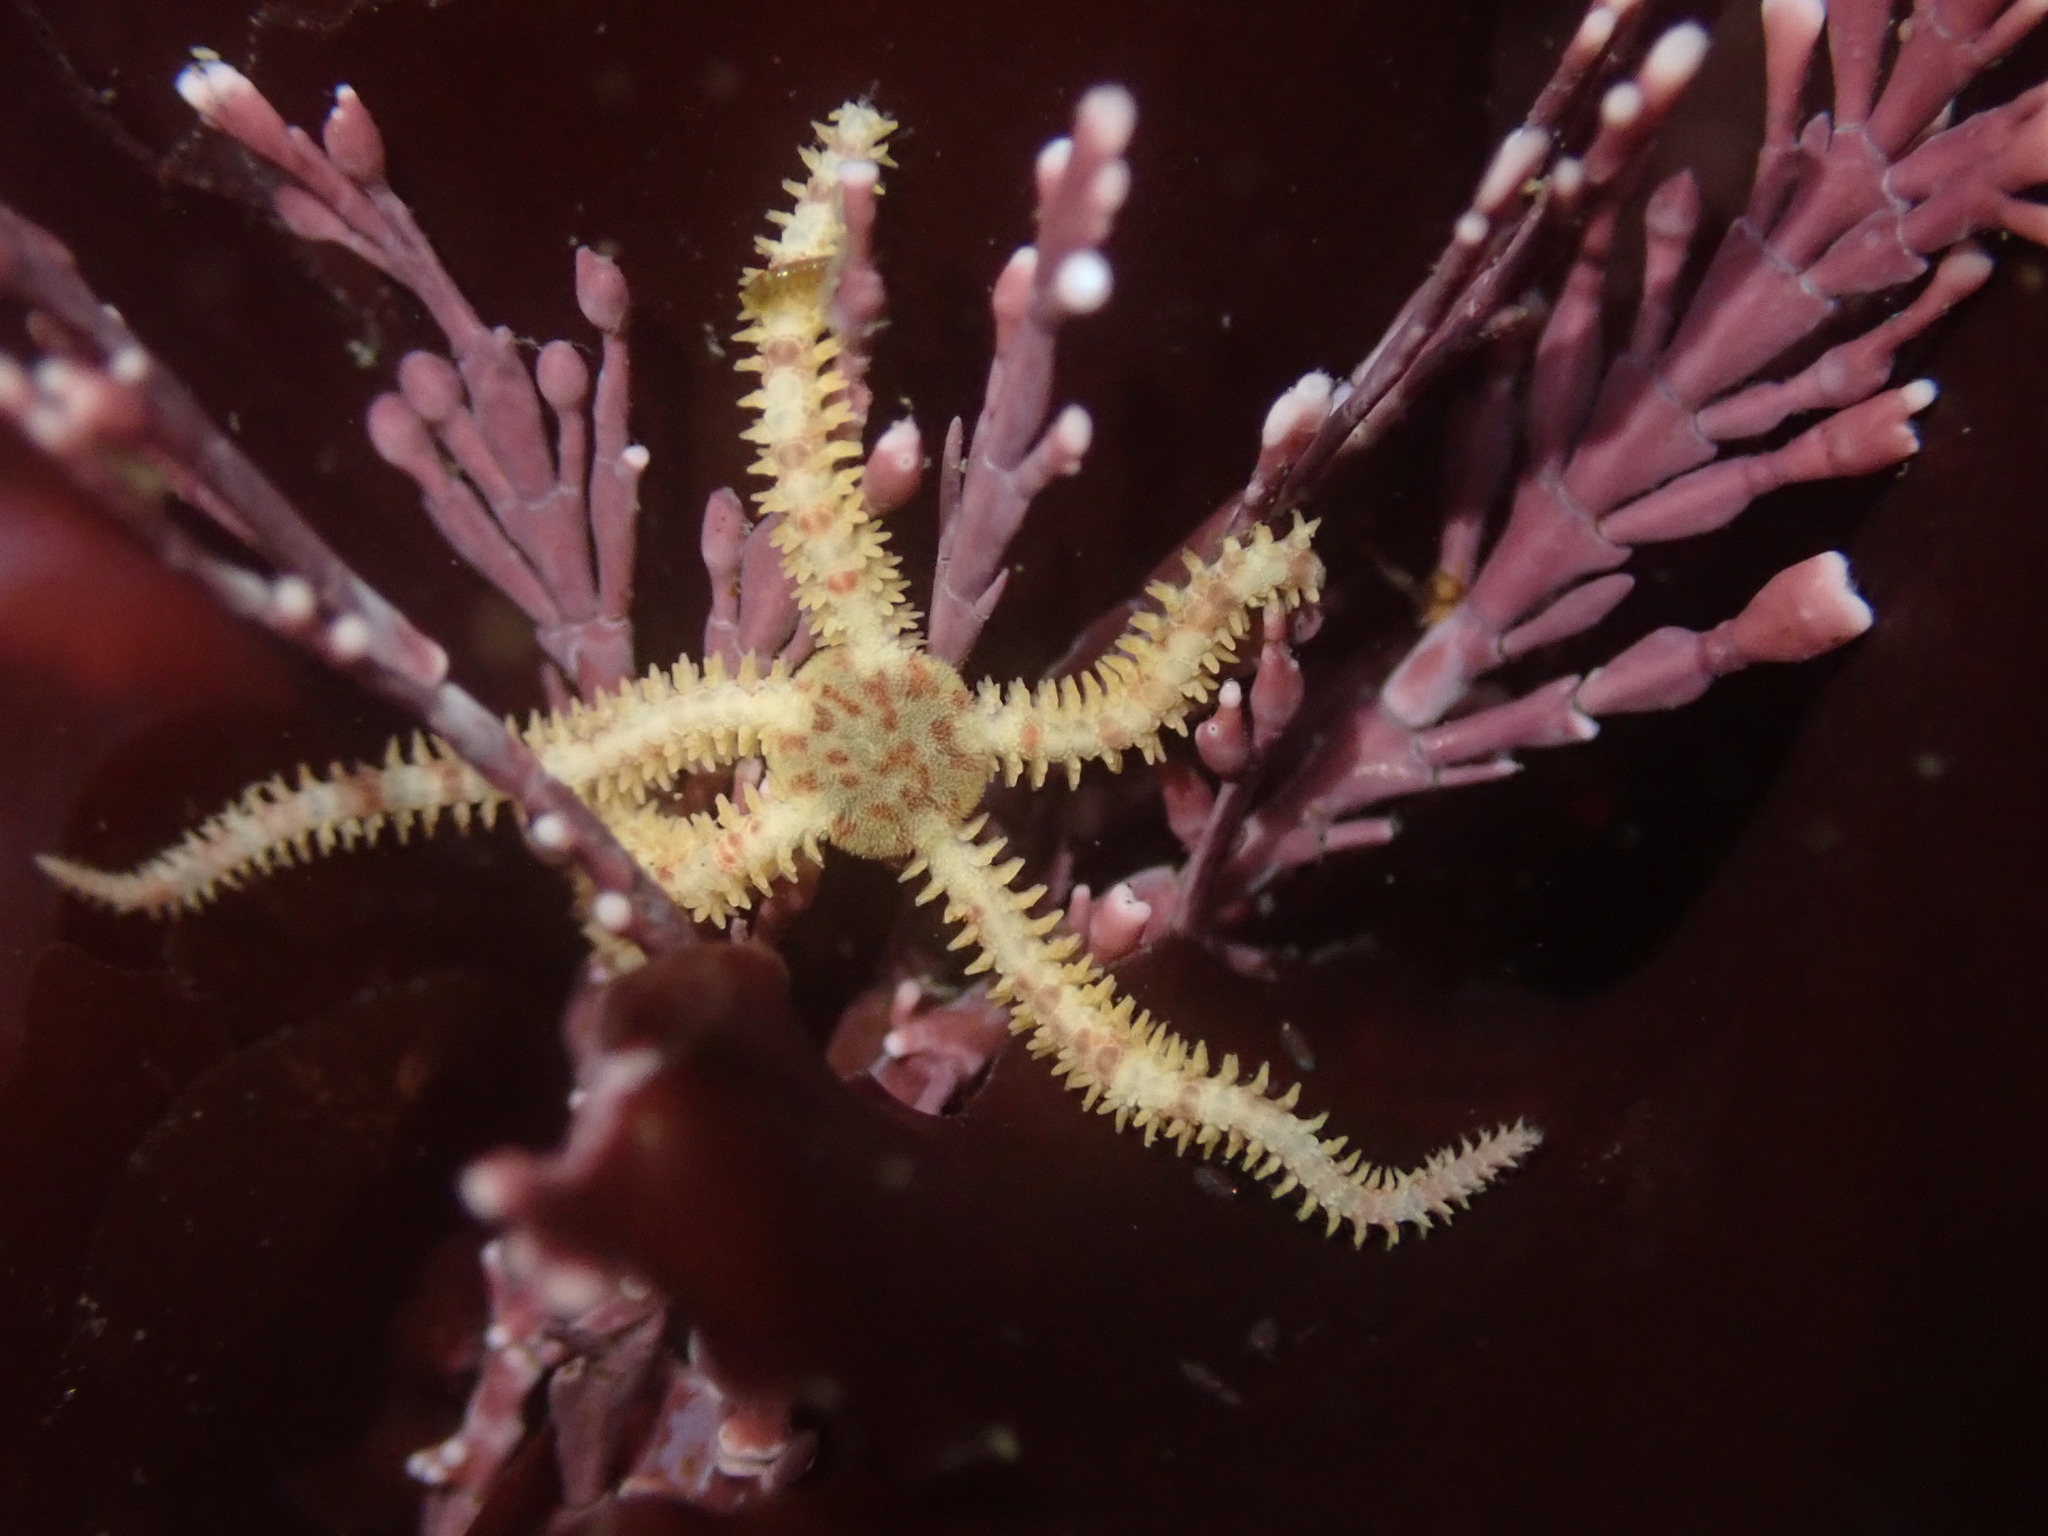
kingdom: Animalia
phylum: Echinodermata
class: Ophiuroidea
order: Amphilepidida
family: Ophiopholidae
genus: Ophiopholis
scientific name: Ophiopholis aculeata
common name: Crevice brittlestar
